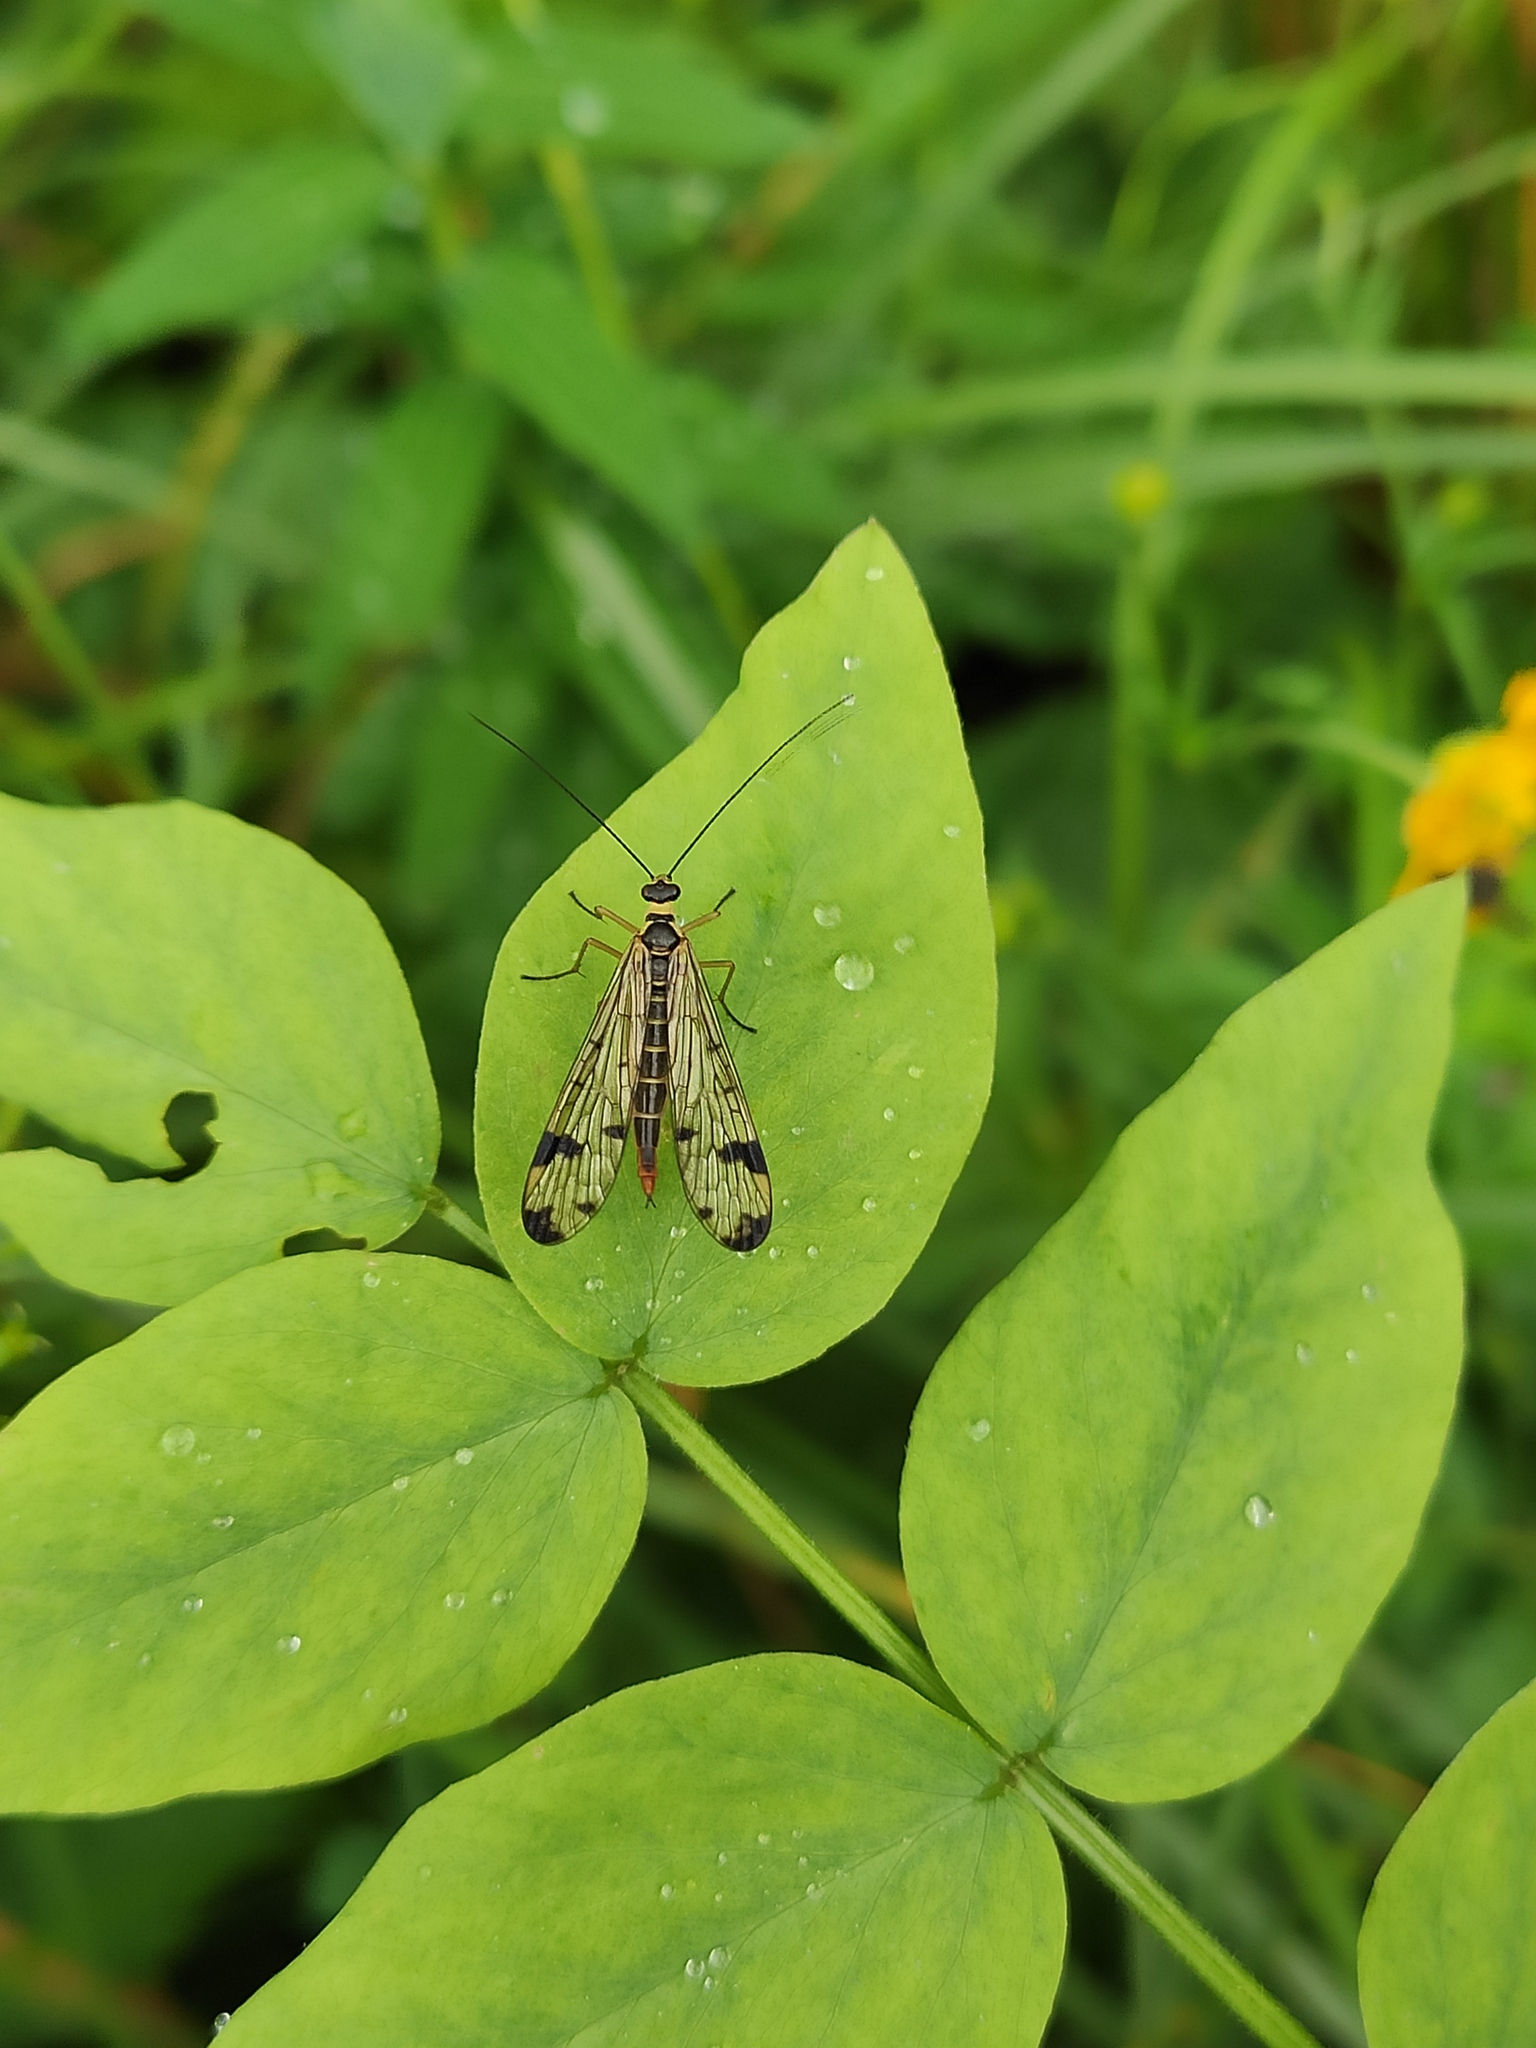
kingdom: Animalia
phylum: Arthropoda
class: Insecta
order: Mecoptera
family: Panorpidae
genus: Panorpa
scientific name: Panorpa connexa
